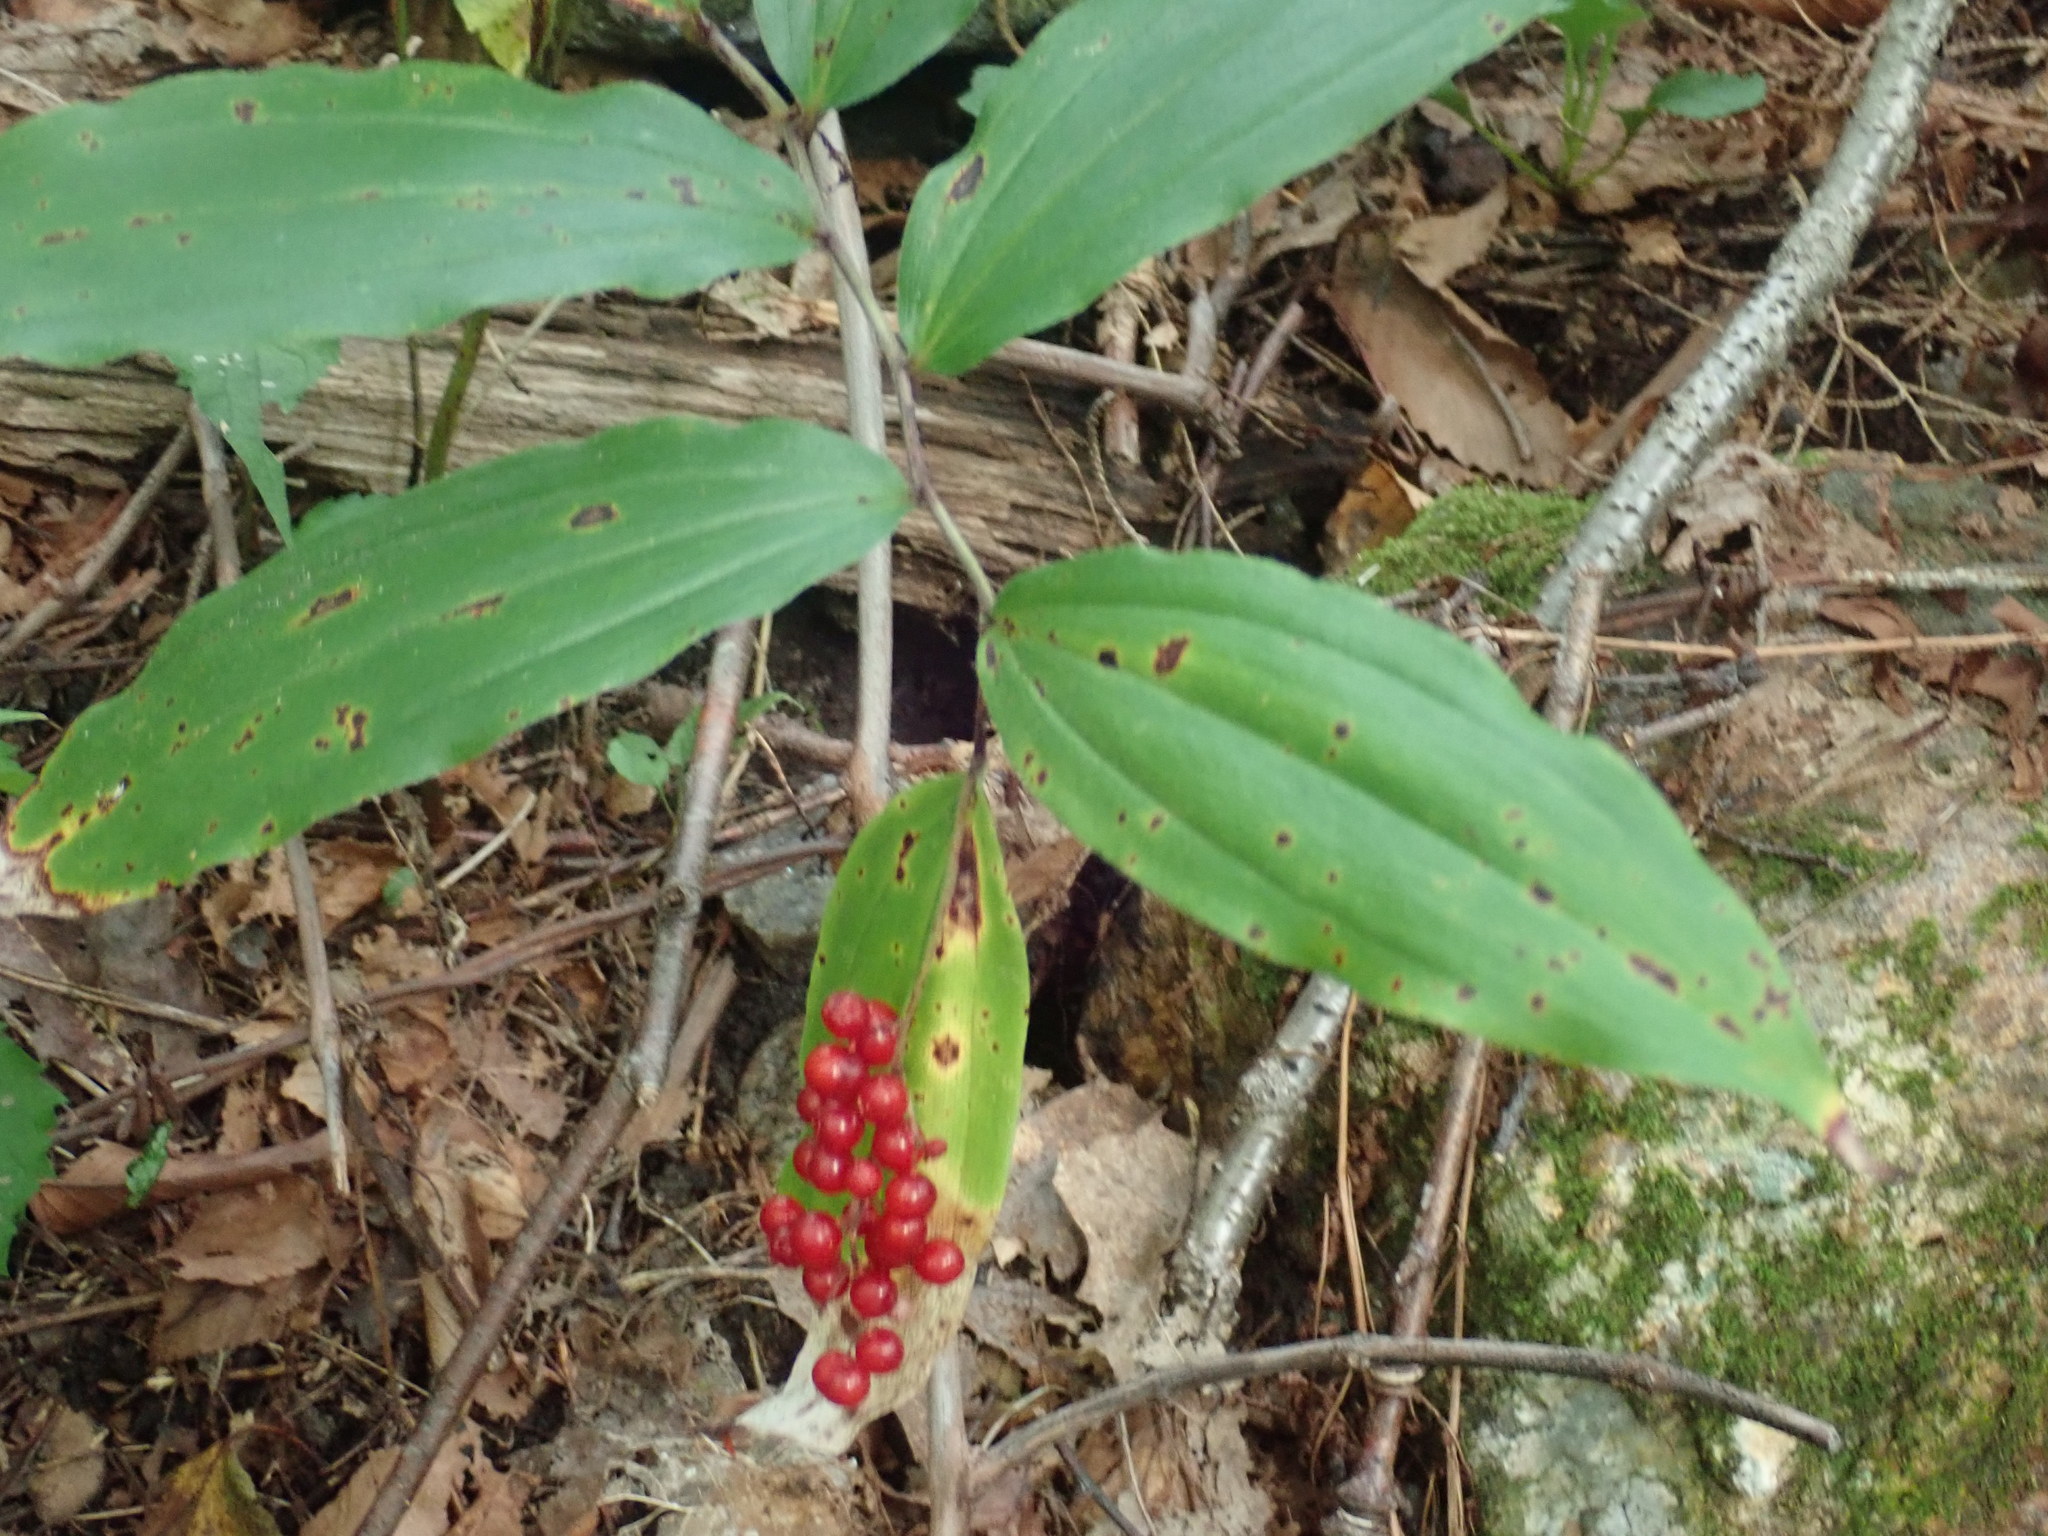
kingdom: Plantae
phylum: Tracheophyta
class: Liliopsida
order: Asparagales
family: Asparagaceae
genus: Maianthemum
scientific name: Maianthemum racemosum
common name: False spikenard
